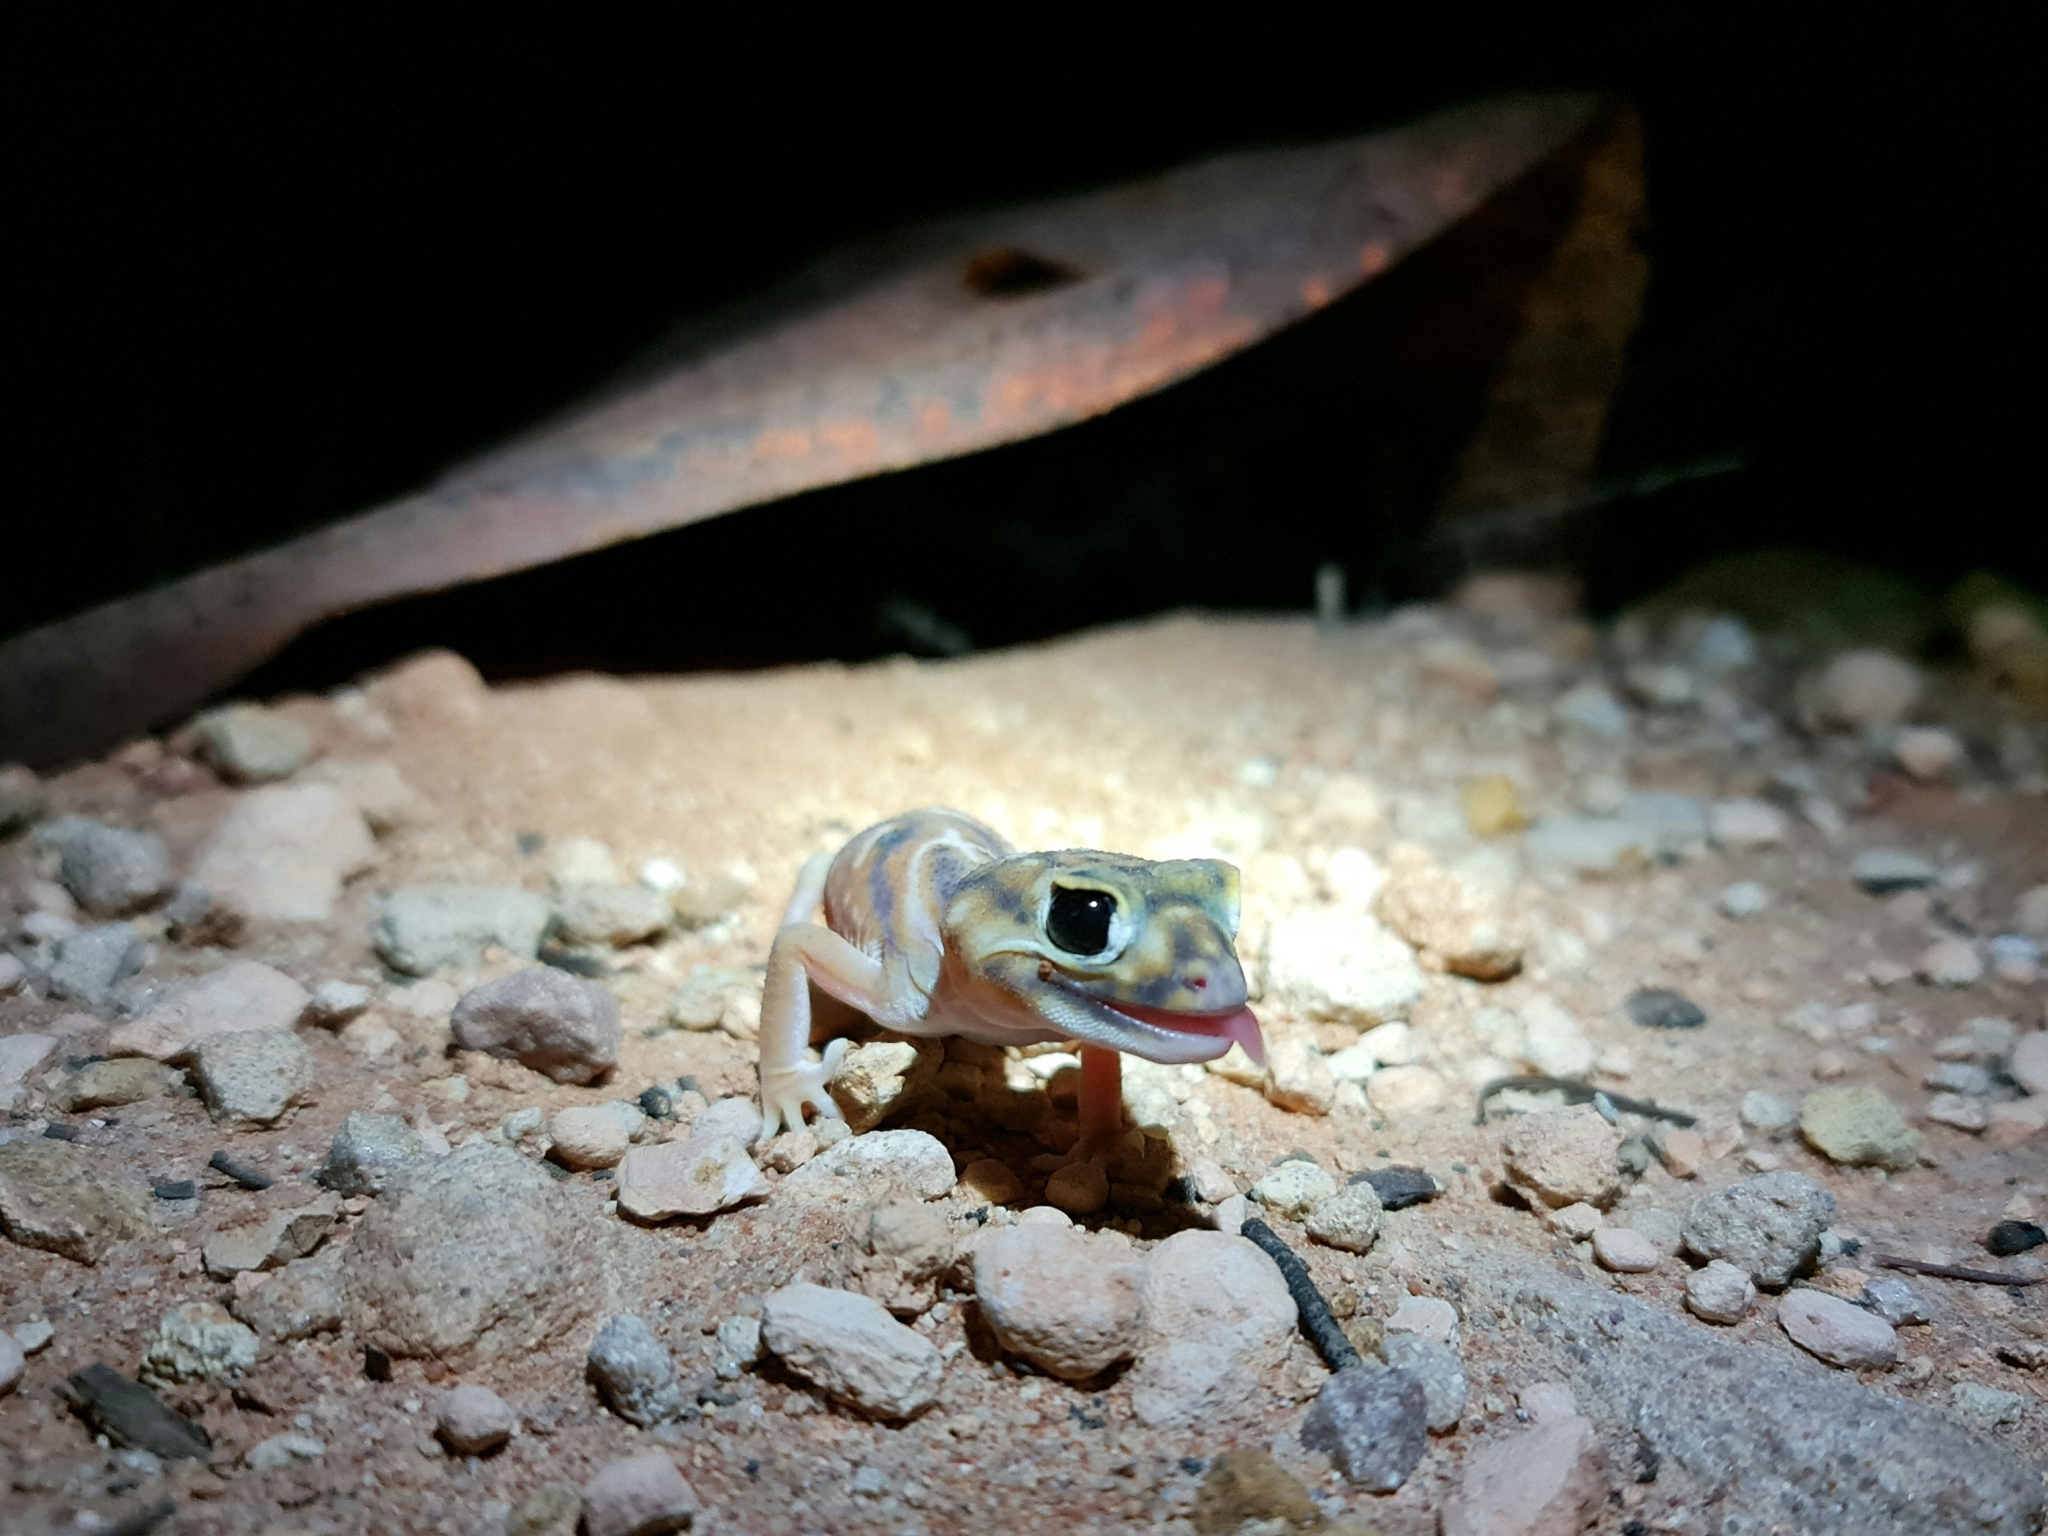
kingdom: Animalia
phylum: Chordata
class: Squamata
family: Carphodactylidae
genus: Nephrurus
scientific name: Nephrurus deleani
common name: Pernatty knob-tail
